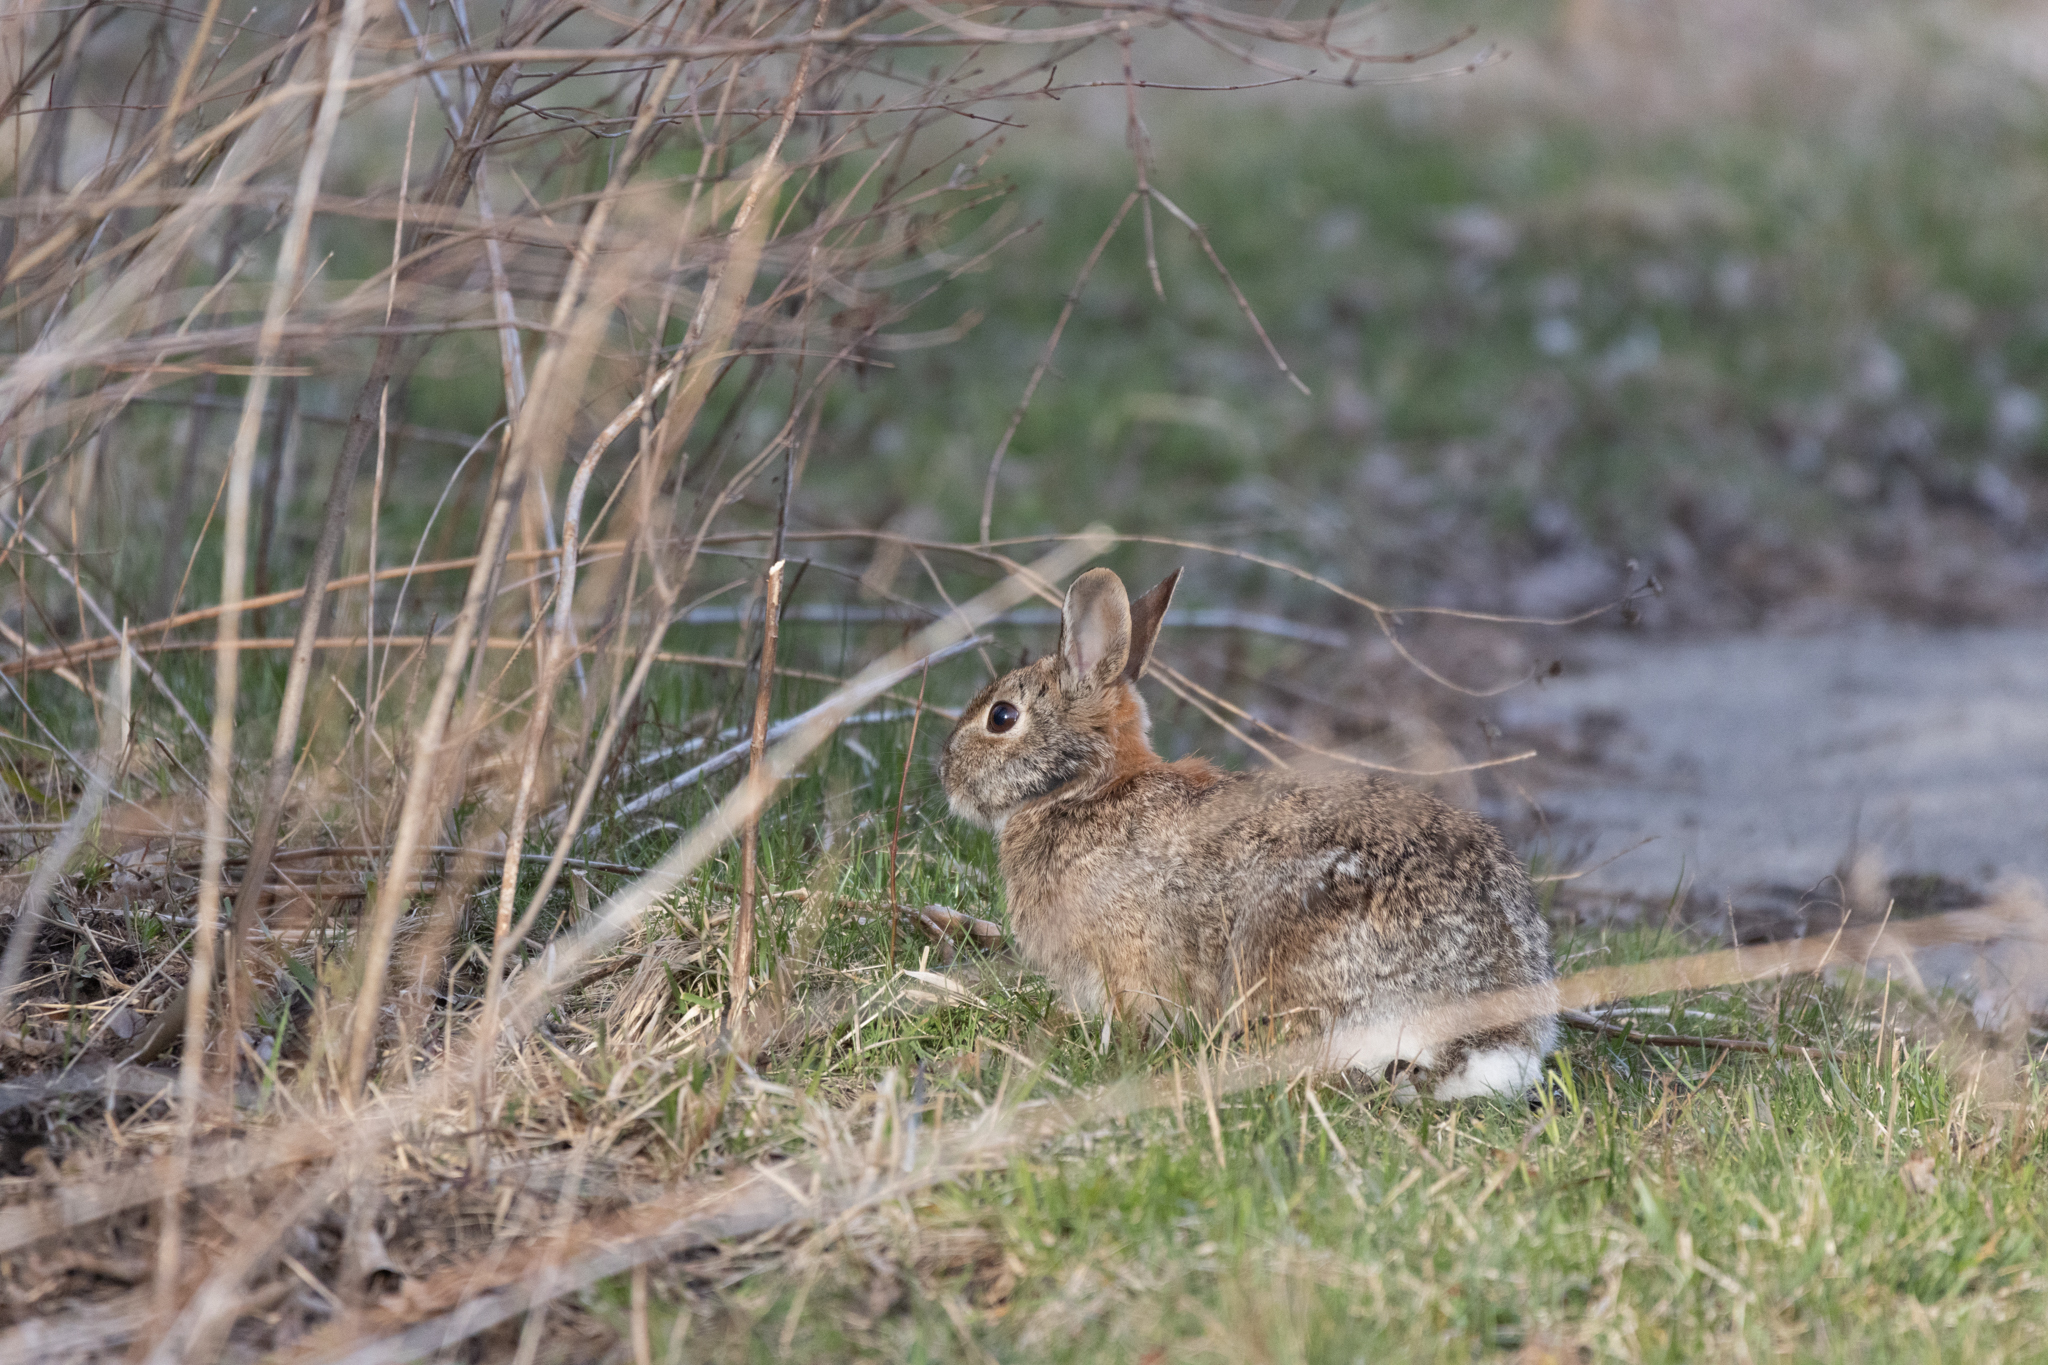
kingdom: Animalia
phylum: Chordata
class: Mammalia
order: Lagomorpha
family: Leporidae
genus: Sylvilagus
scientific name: Sylvilagus floridanus
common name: Eastern cottontail
